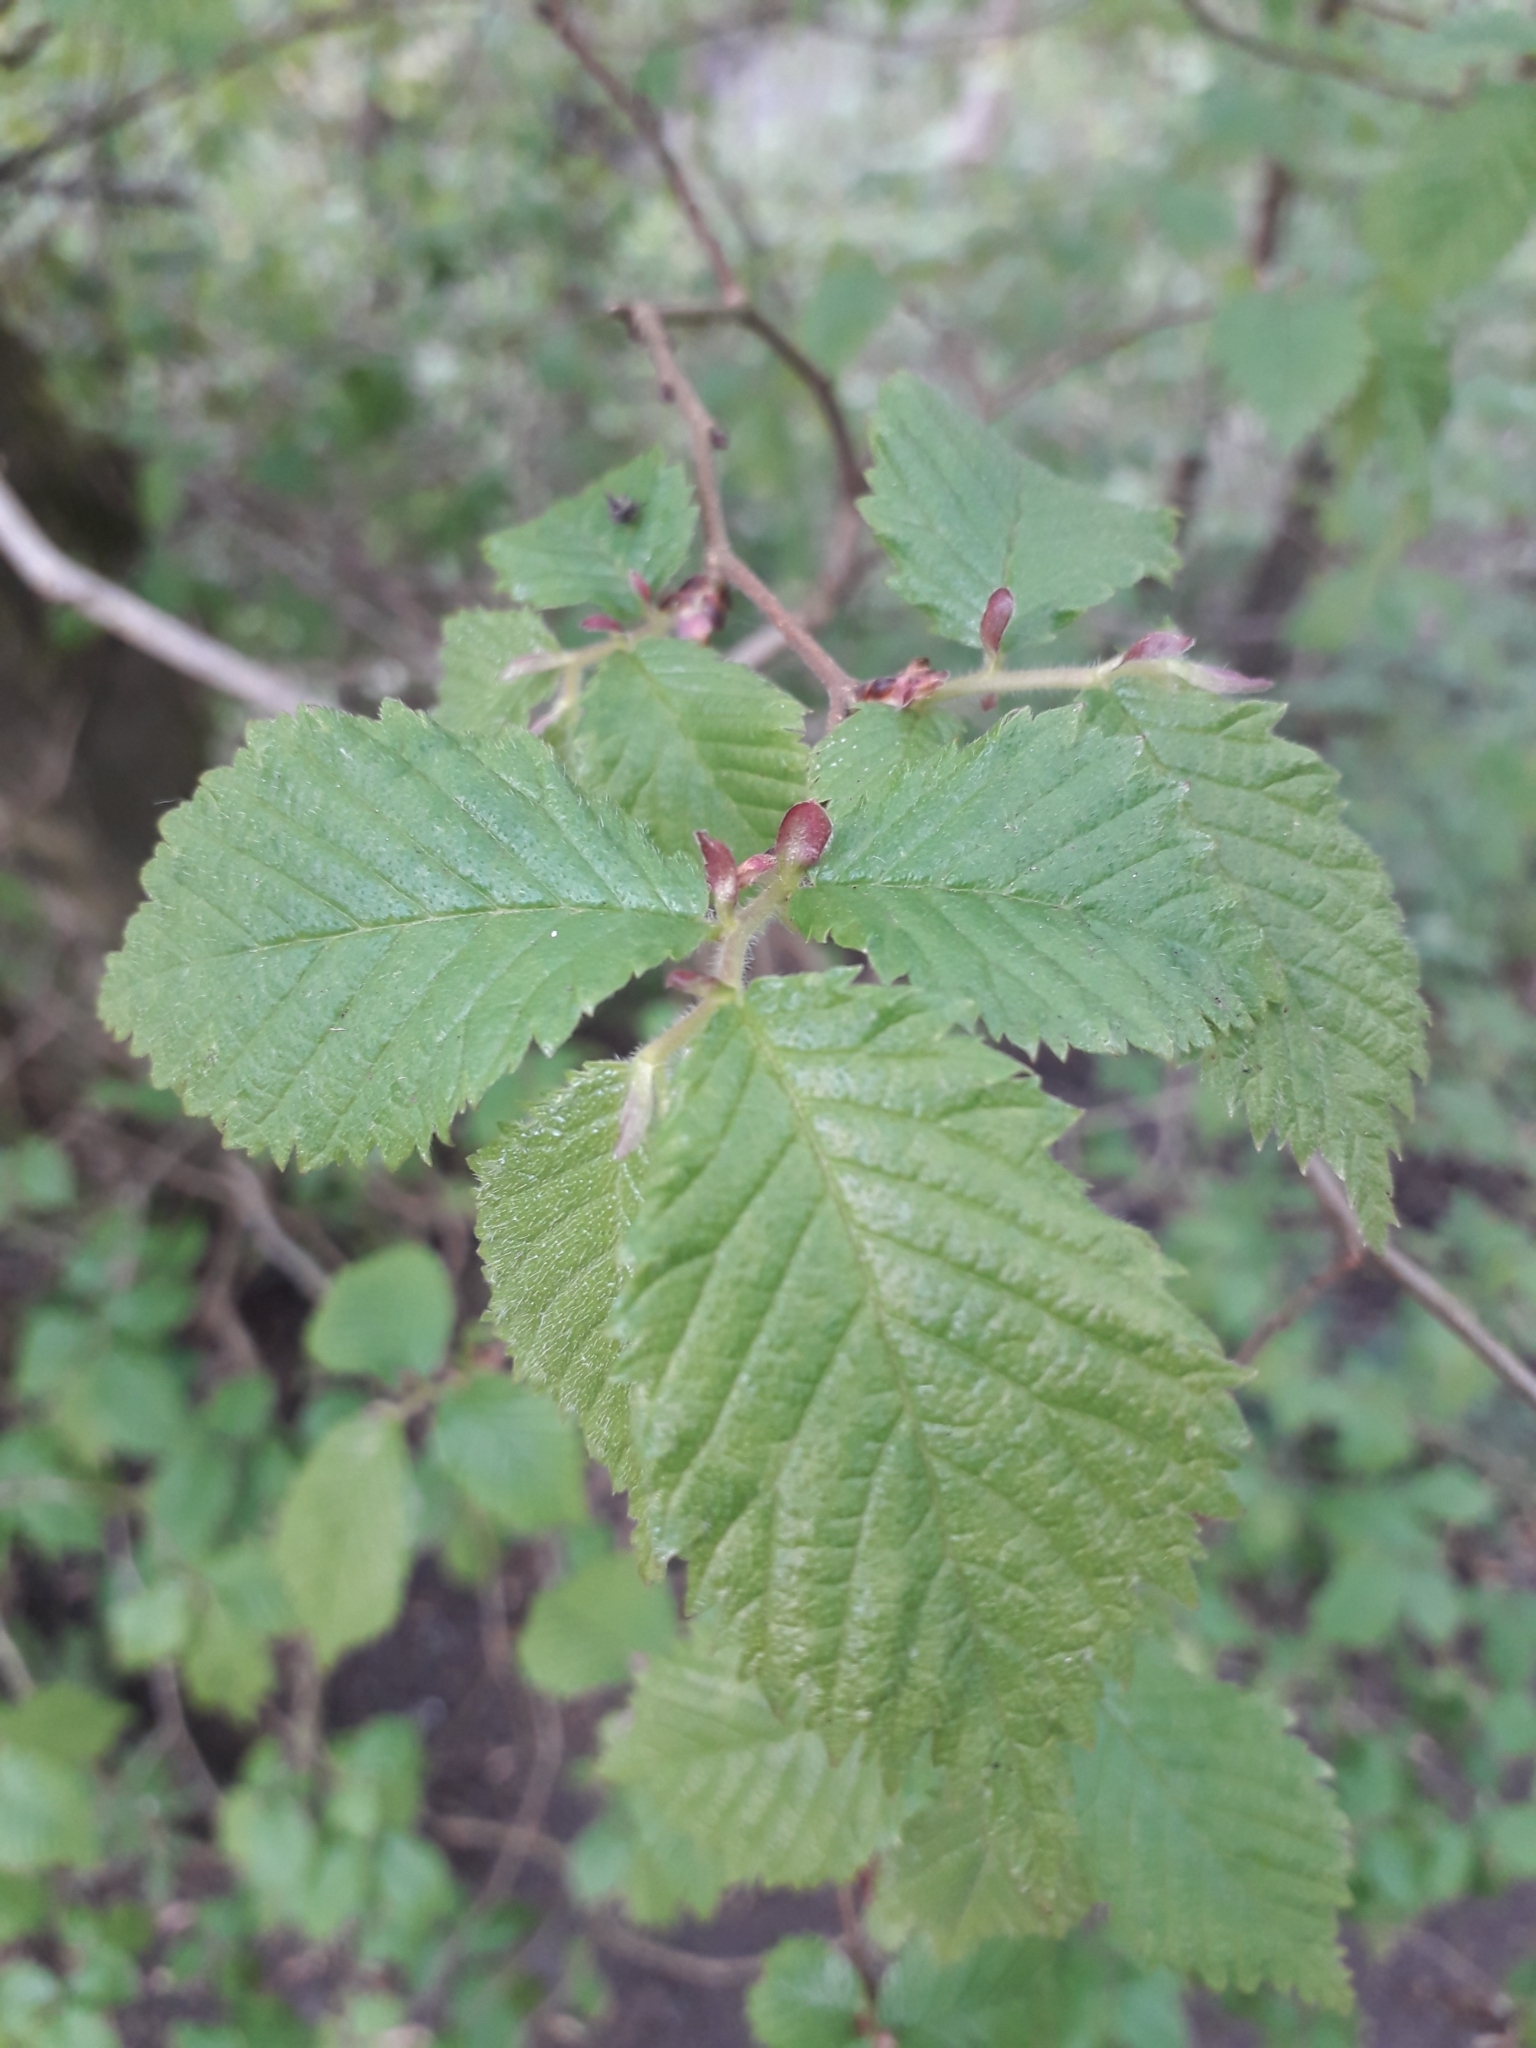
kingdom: Plantae
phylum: Tracheophyta
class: Magnoliopsida
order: Rosales
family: Ulmaceae
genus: Ulmus
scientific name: Ulmus minor
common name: Small-leaved elm
